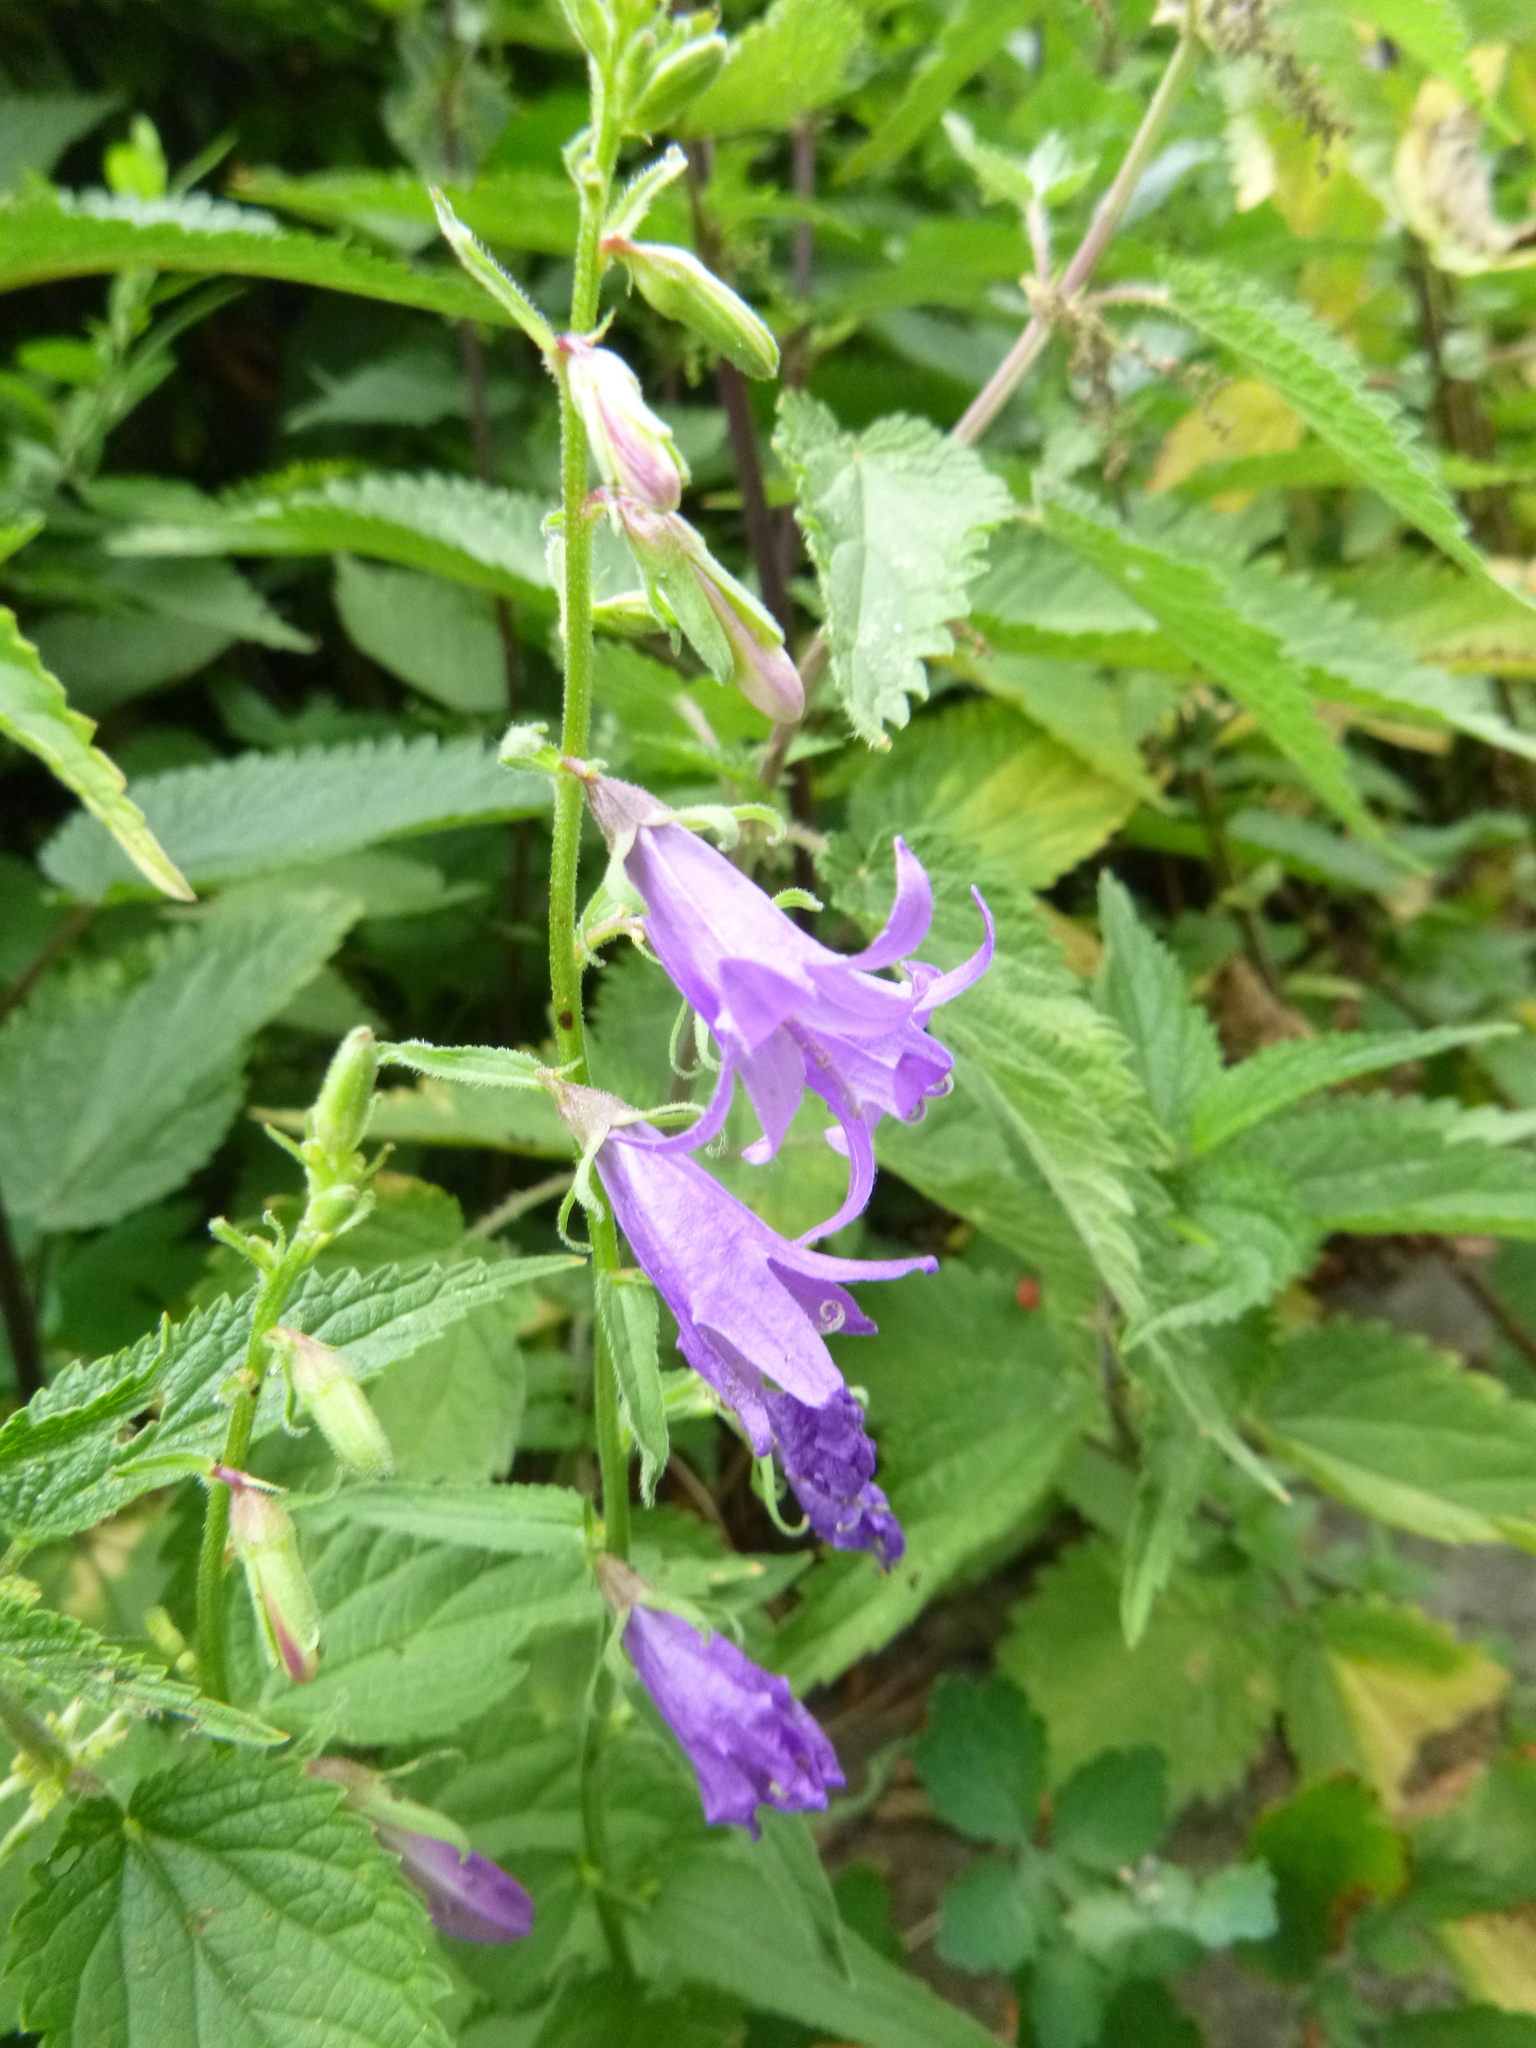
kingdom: Plantae
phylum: Tracheophyta
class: Magnoliopsida
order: Asterales
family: Campanulaceae
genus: Campanula
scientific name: Campanula rapunculoides
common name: Creeping bellflower
